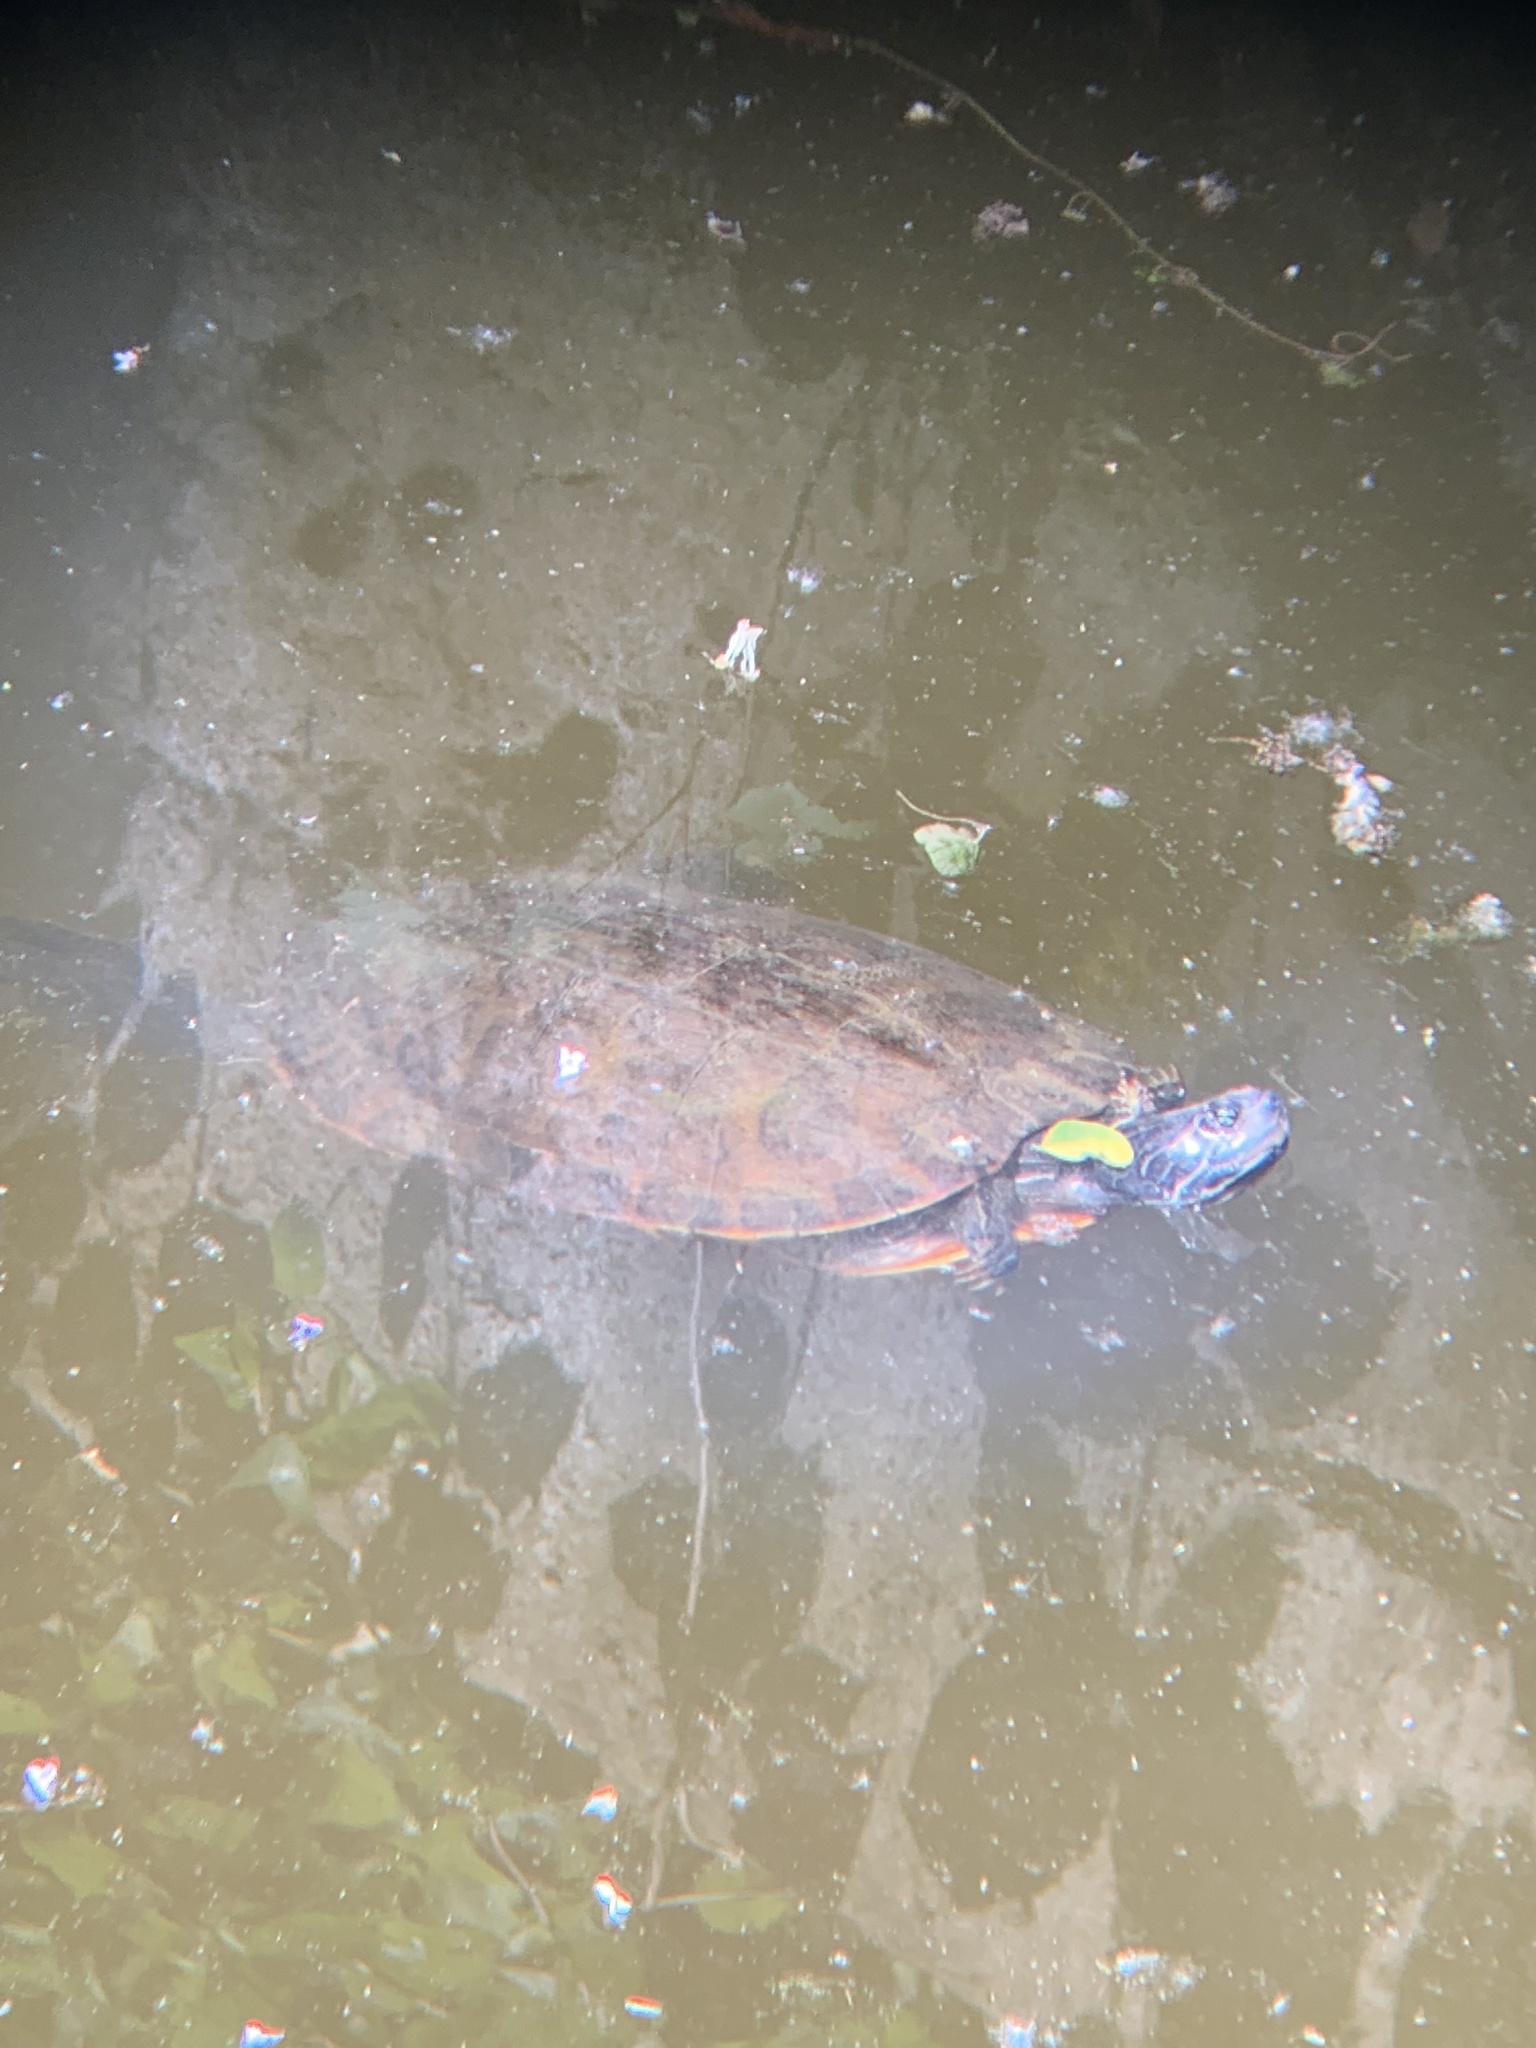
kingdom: Animalia
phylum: Chordata
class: Testudines
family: Emydidae
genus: Pseudemys
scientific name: Pseudemys rubriventris
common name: American red-bellied turtle
